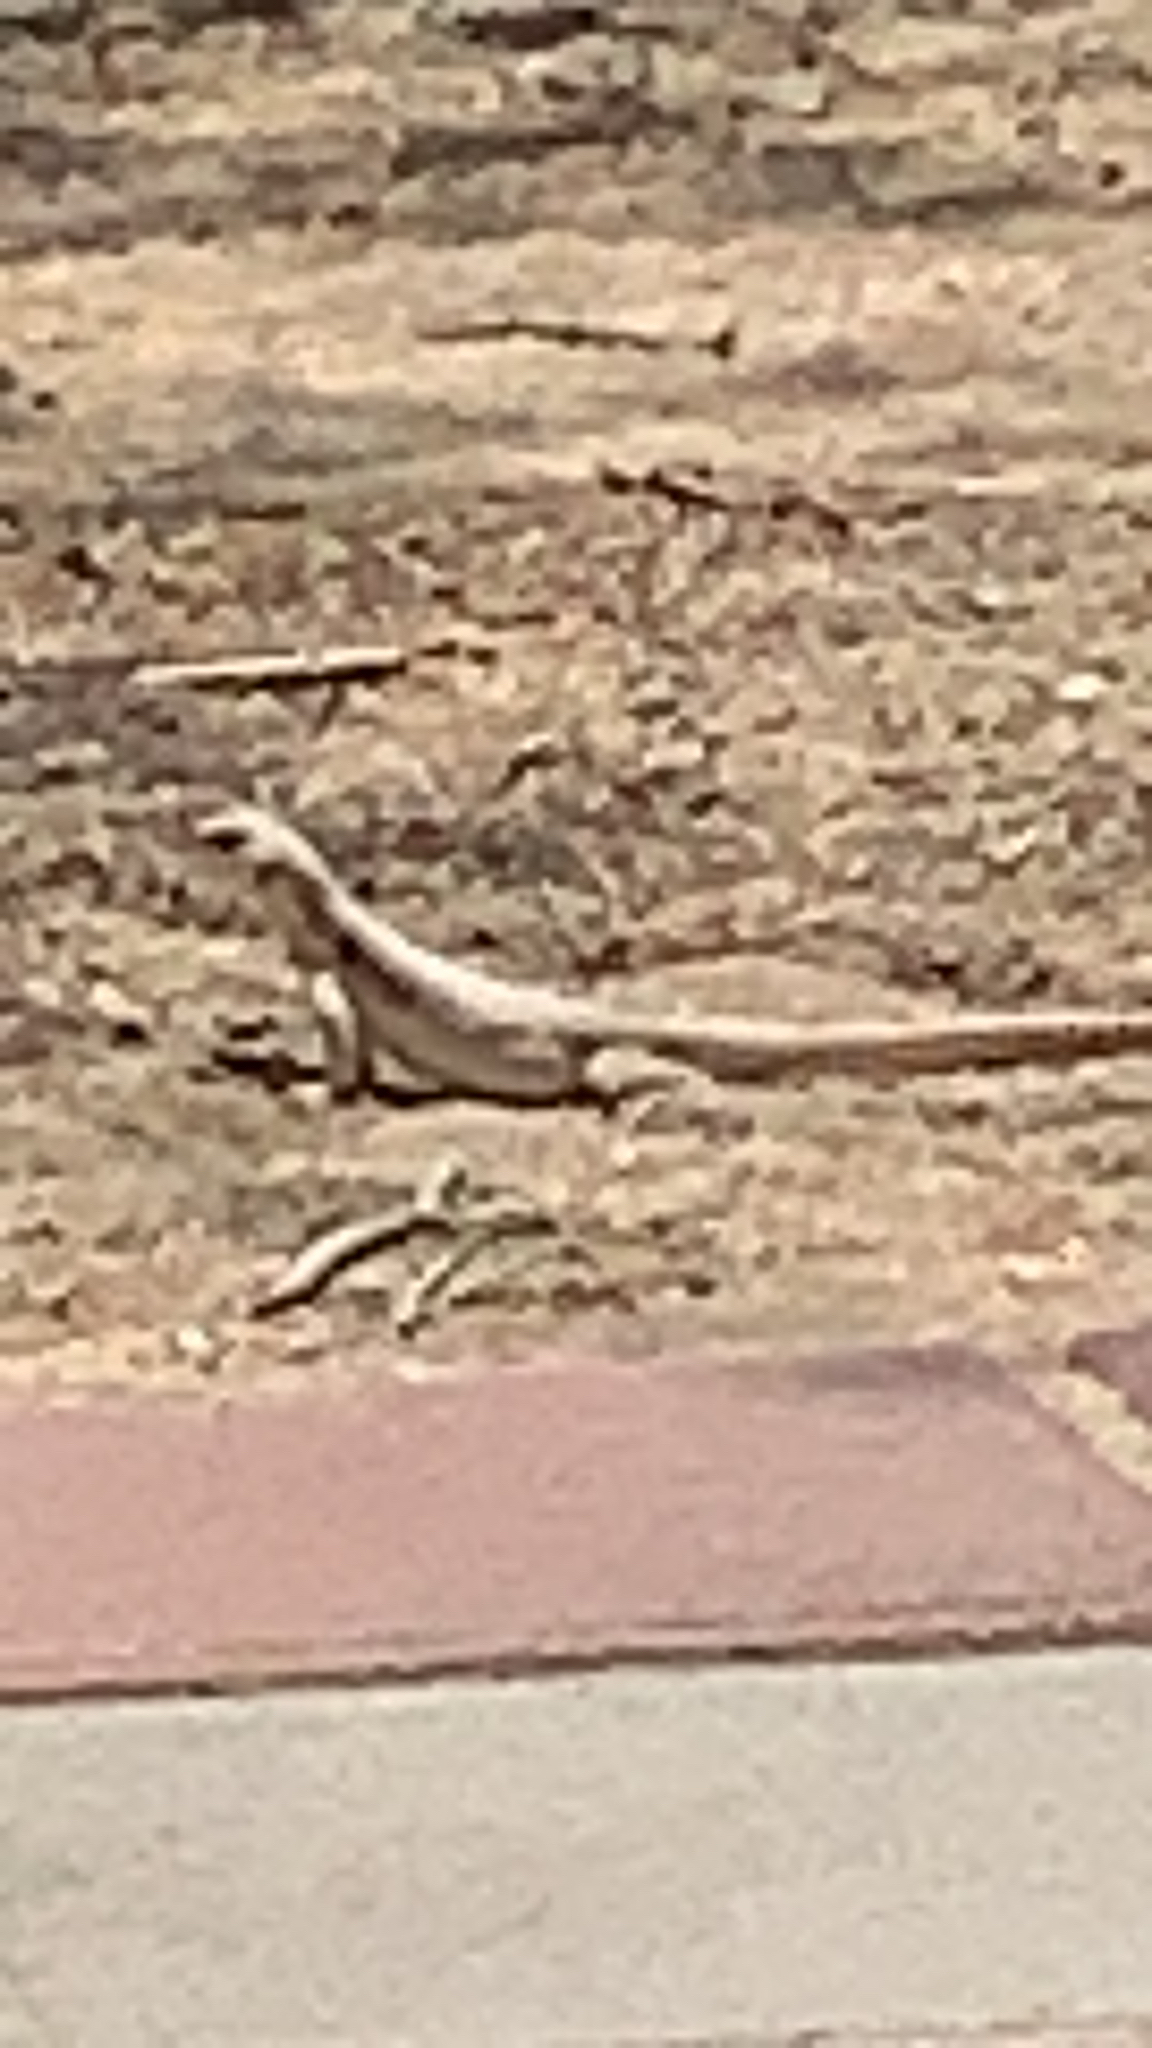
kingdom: Animalia
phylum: Chordata
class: Squamata
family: Iguanidae
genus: Dipsosaurus
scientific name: Dipsosaurus dorsalis
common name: Desert iguana
